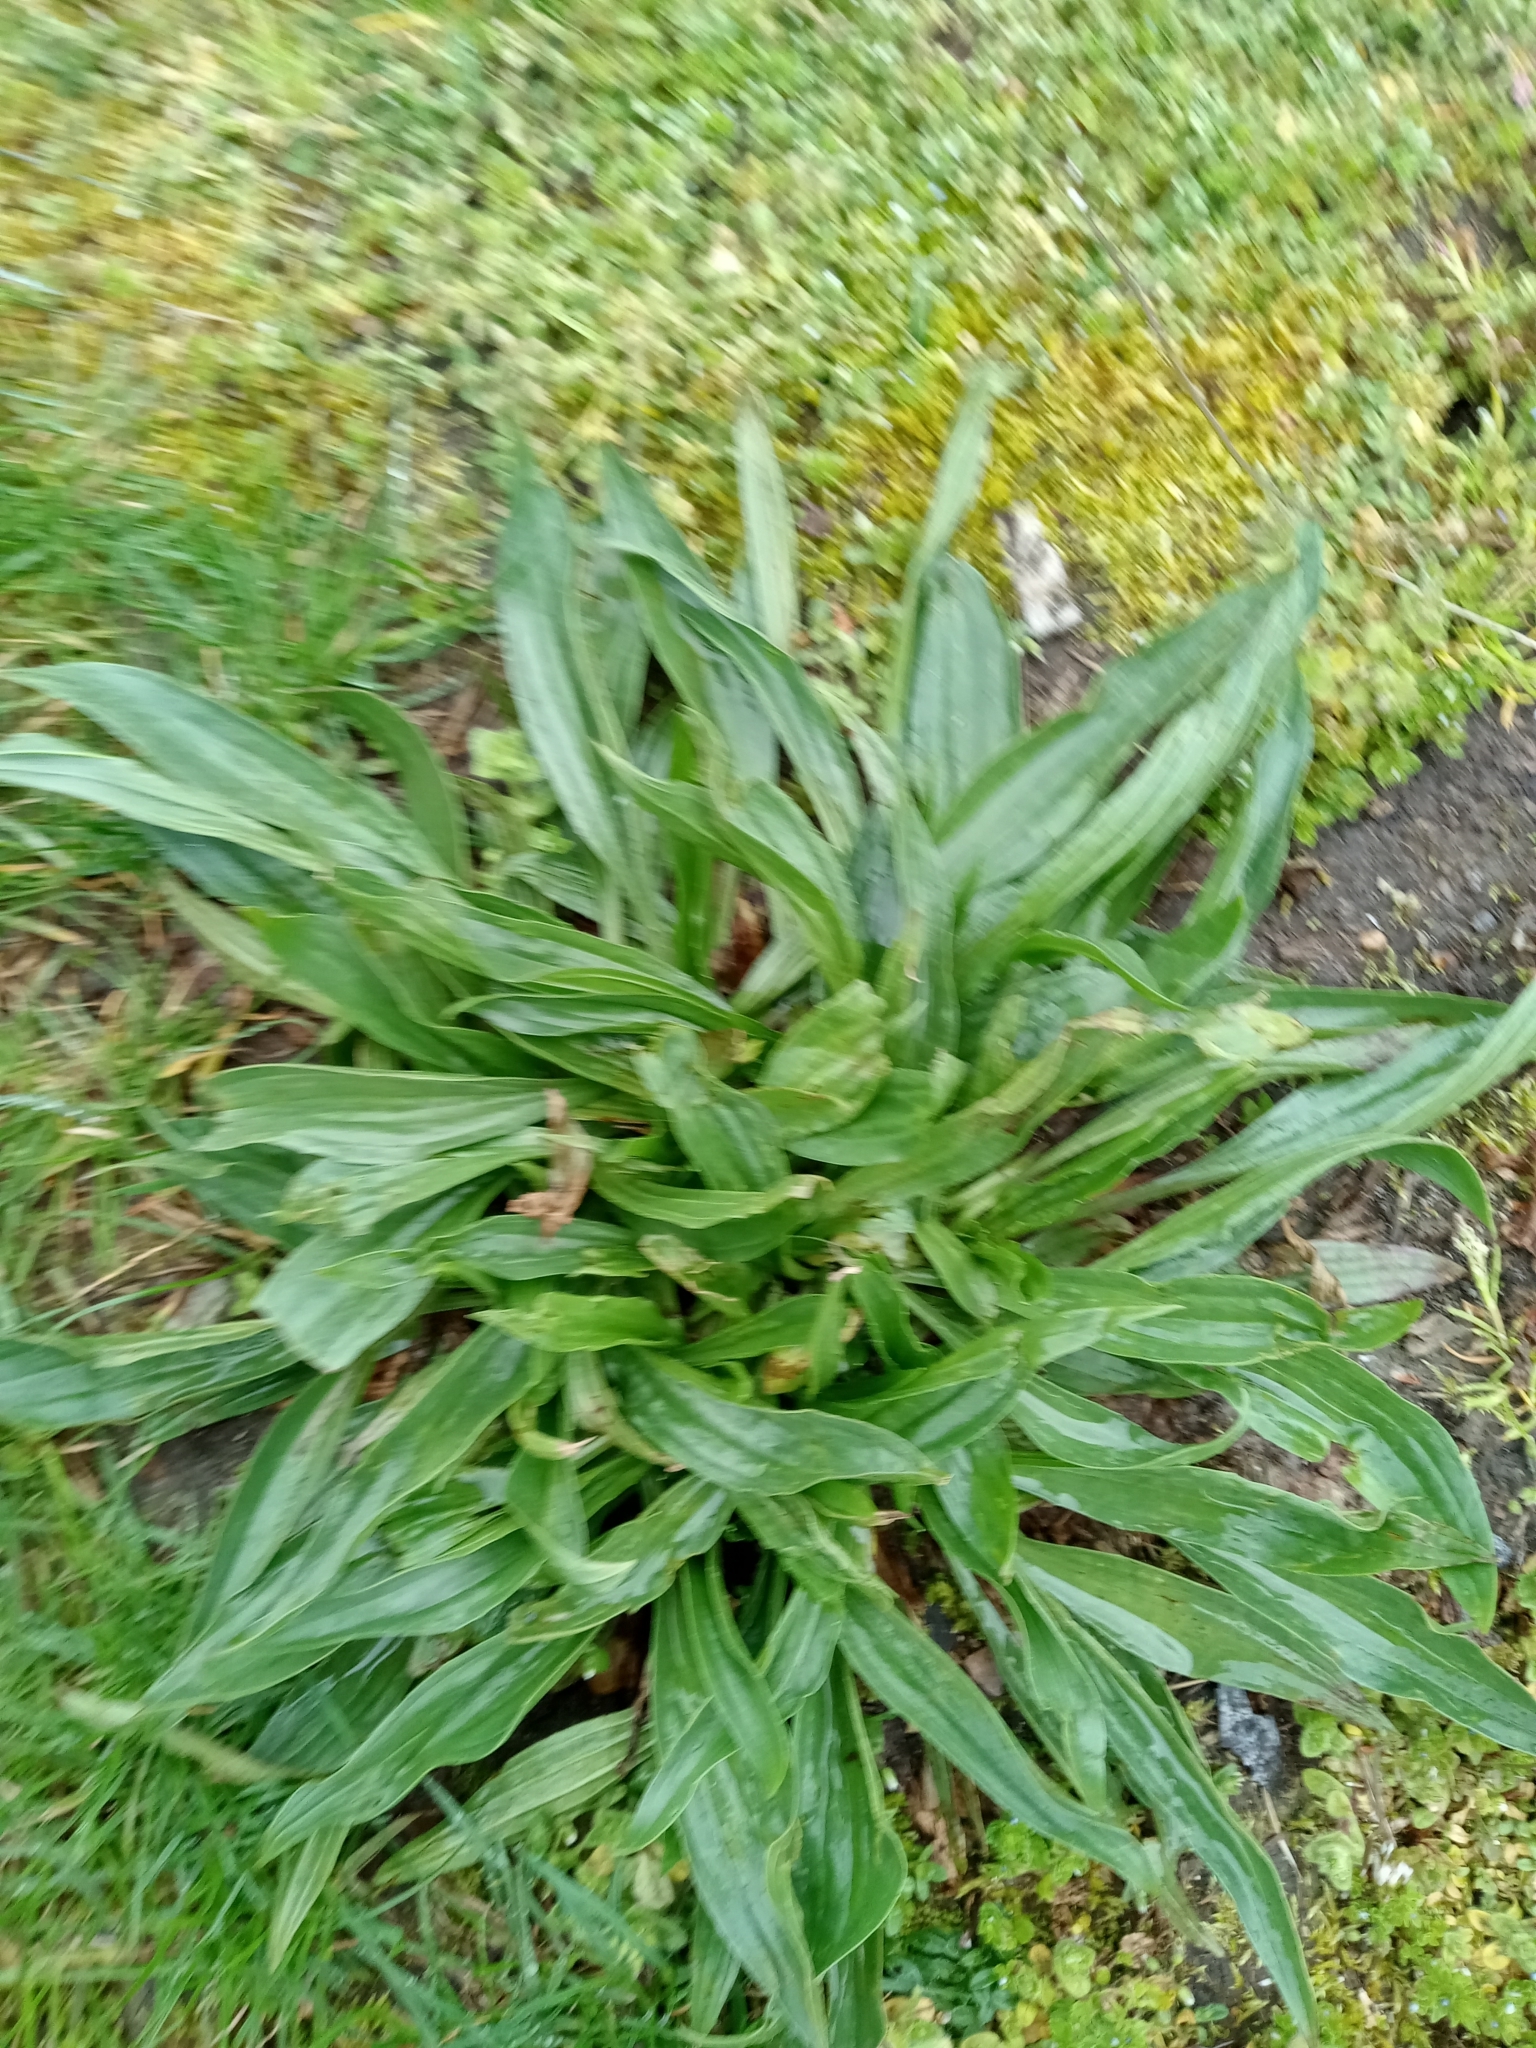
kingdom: Plantae
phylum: Tracheophyta
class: Magnoliopsida
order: Lamiales
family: Plantaginaceae
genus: Plantago
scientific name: Plantago lanceolata
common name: Ribwort plantain
